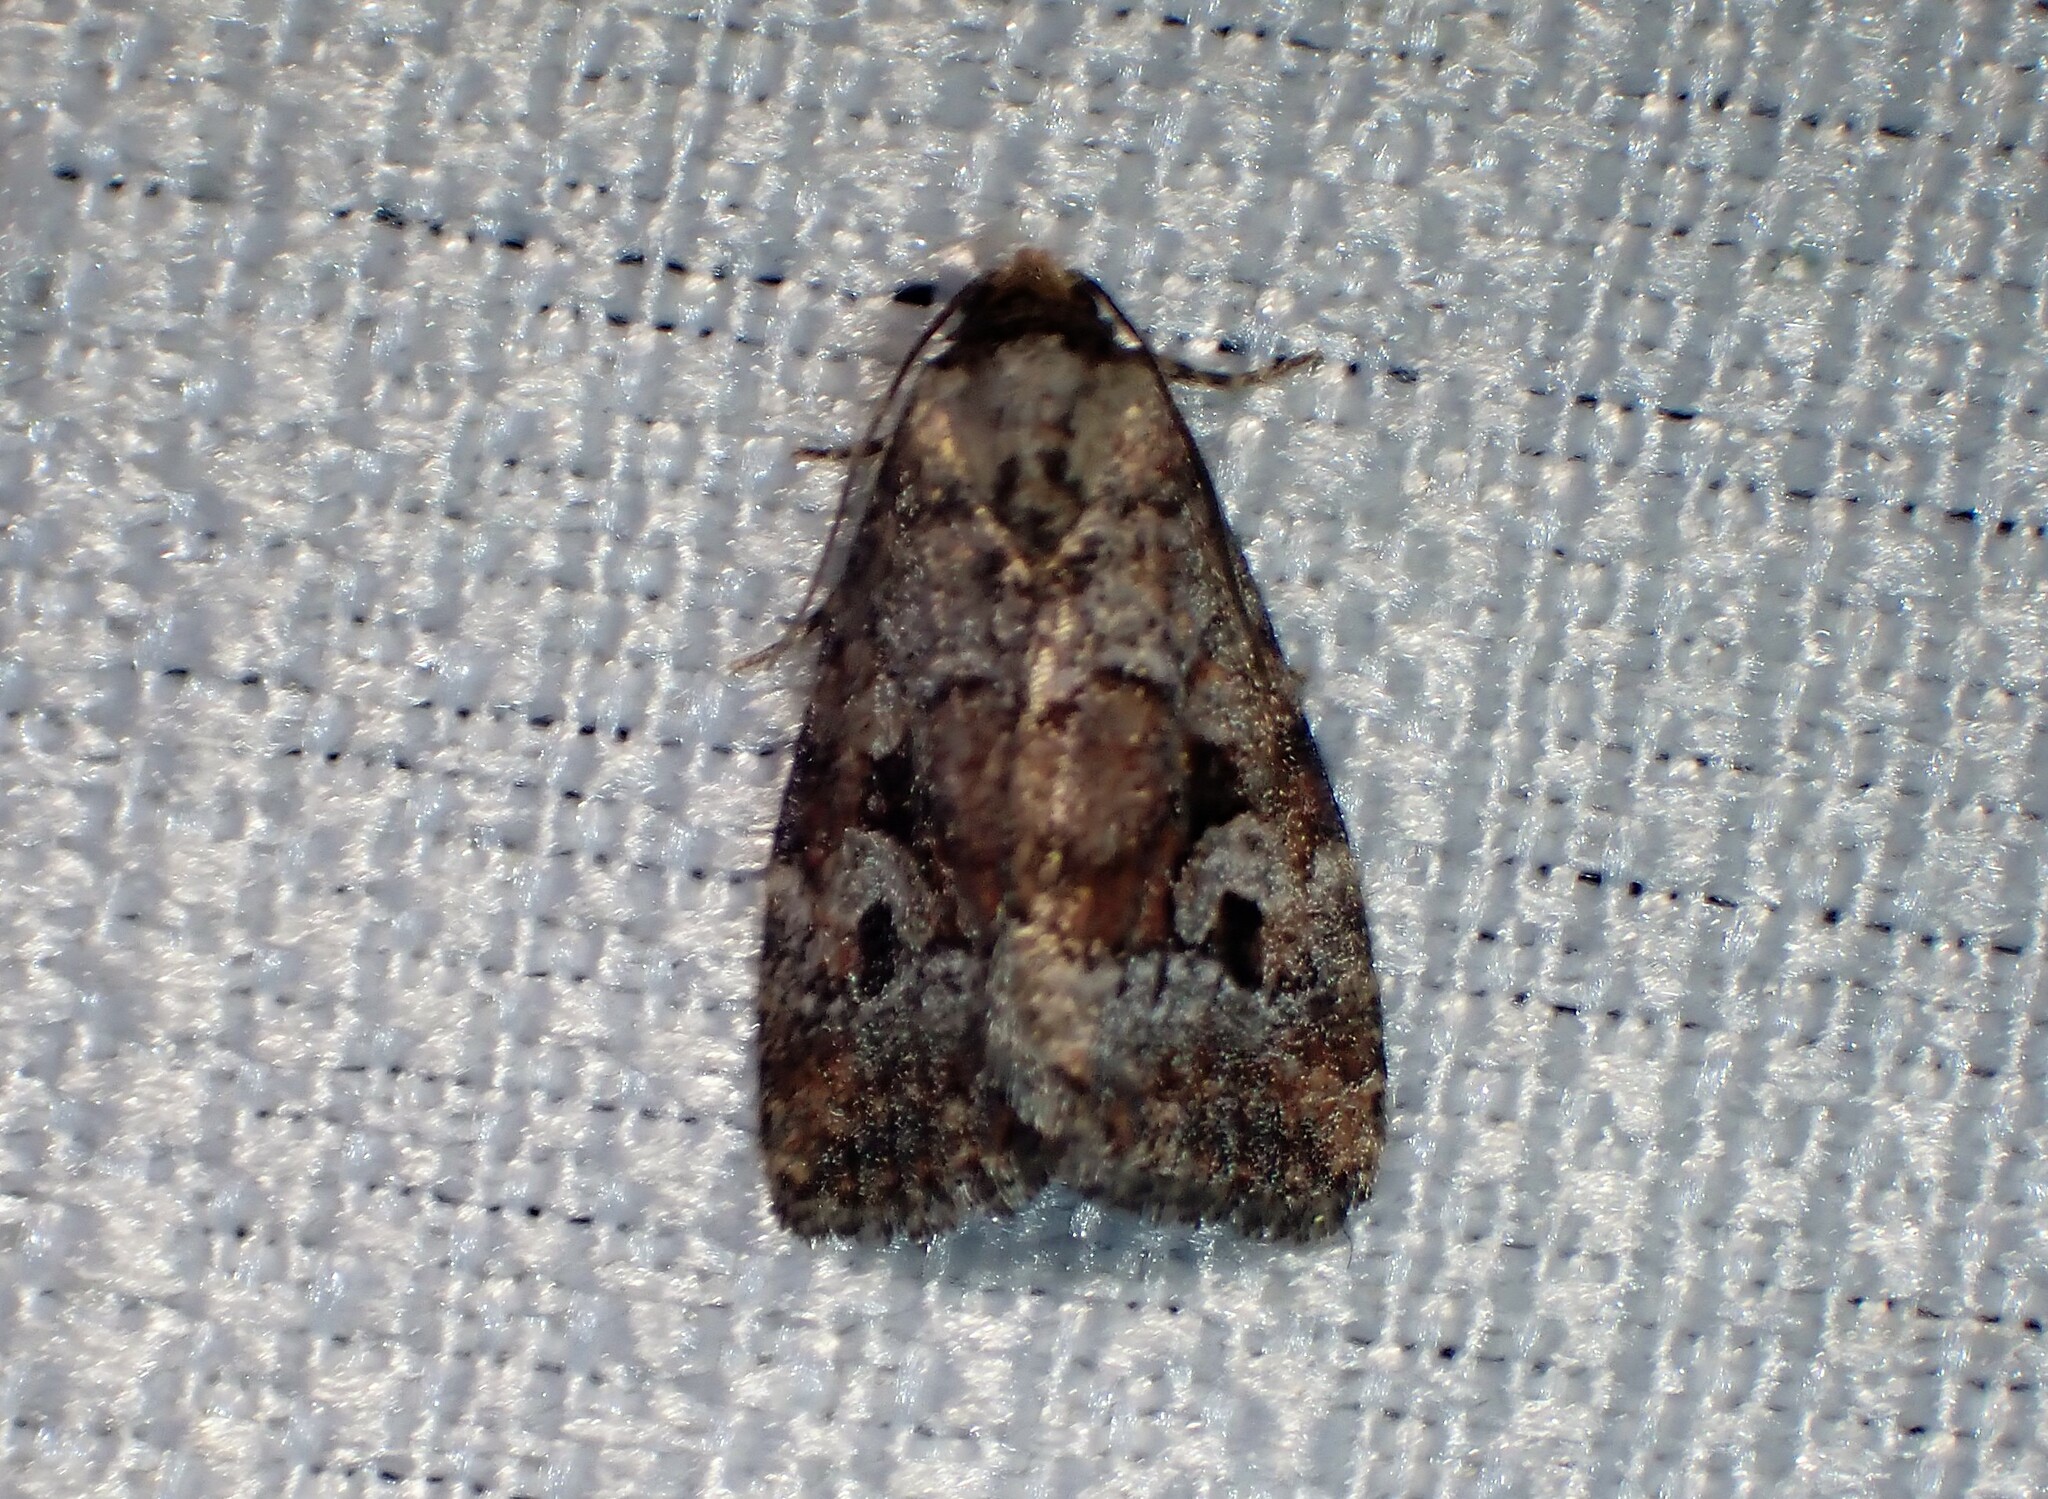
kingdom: Animalia
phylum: Arthropoda
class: Insecta
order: Lepidoptera
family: Noctuidae
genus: Elaphria
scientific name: Elaphria alapallida
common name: Pale-winged midget
